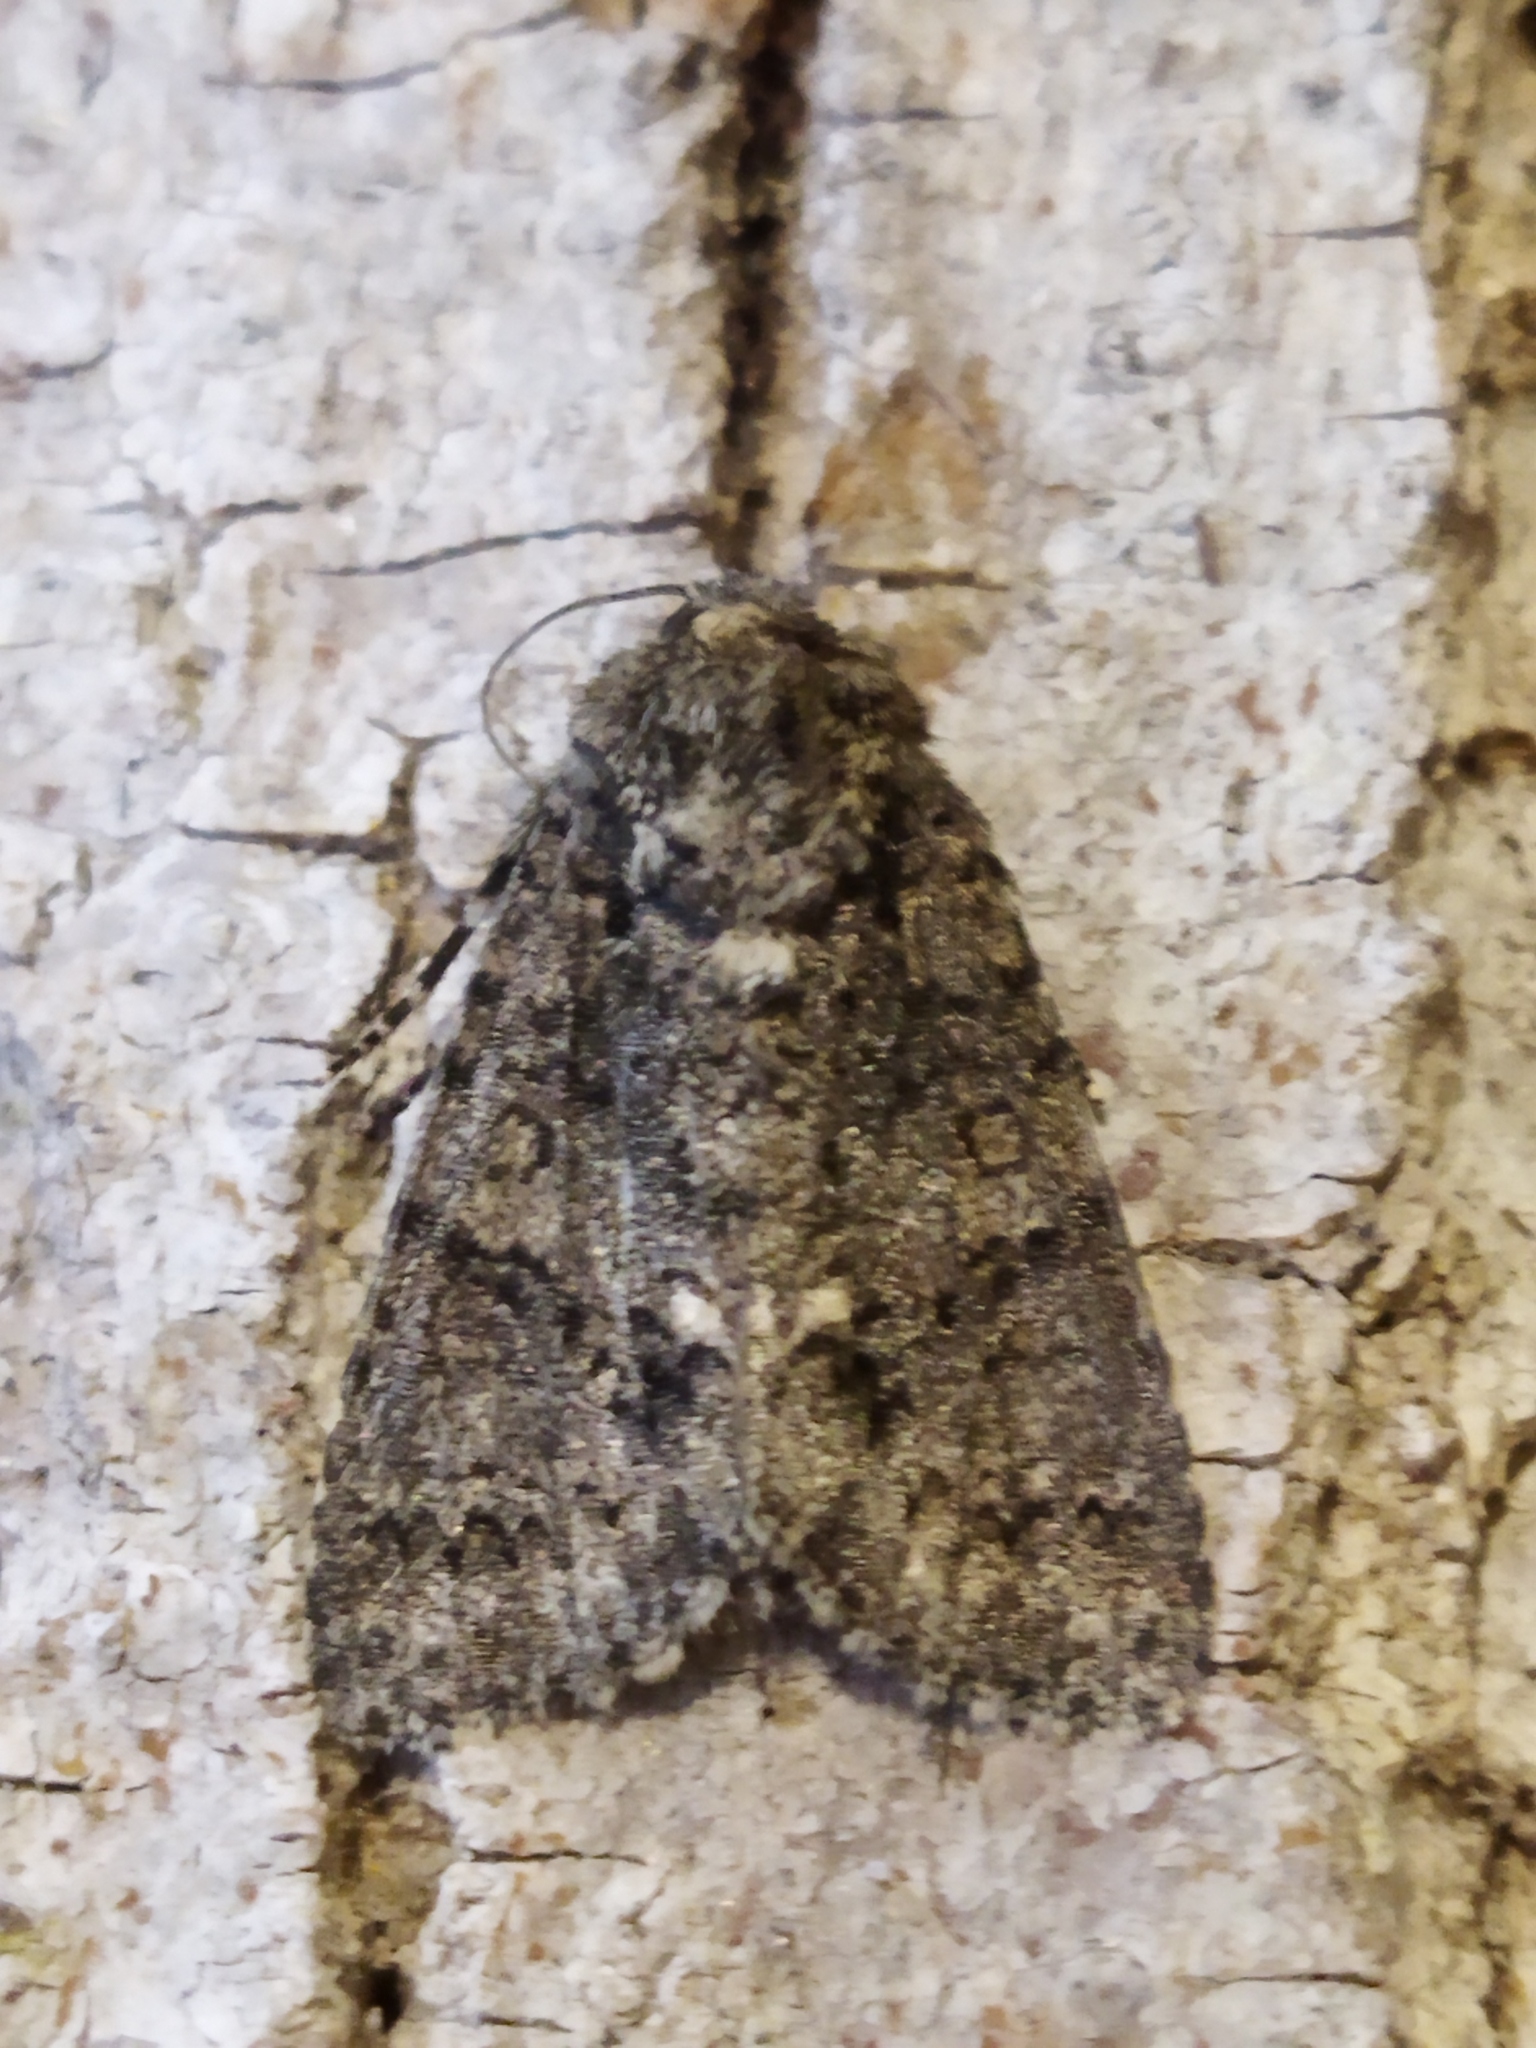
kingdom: Animalia
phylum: Arthropoda
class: Insecta
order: Lepidoptera
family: Noctuidae
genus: Acronicta
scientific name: Acronicta rumicis
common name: Knot grass
